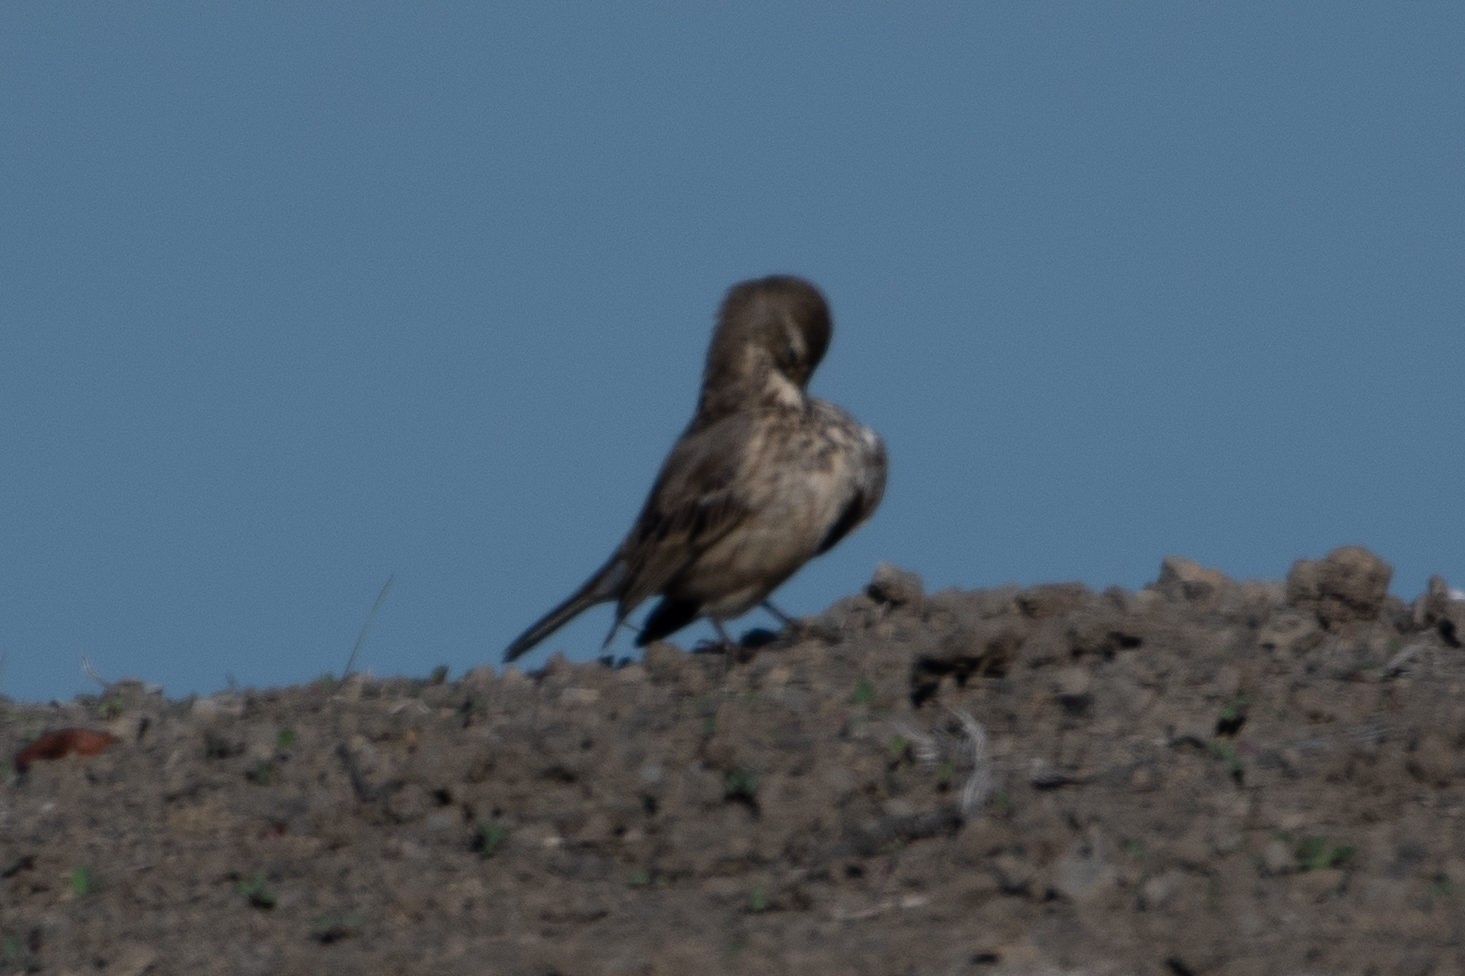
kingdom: Animalia
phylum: Chordata
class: Aves
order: Passeriformes
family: Motacillidae
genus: Anthus
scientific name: Anthus rubescens
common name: Buff-bellied pipit
